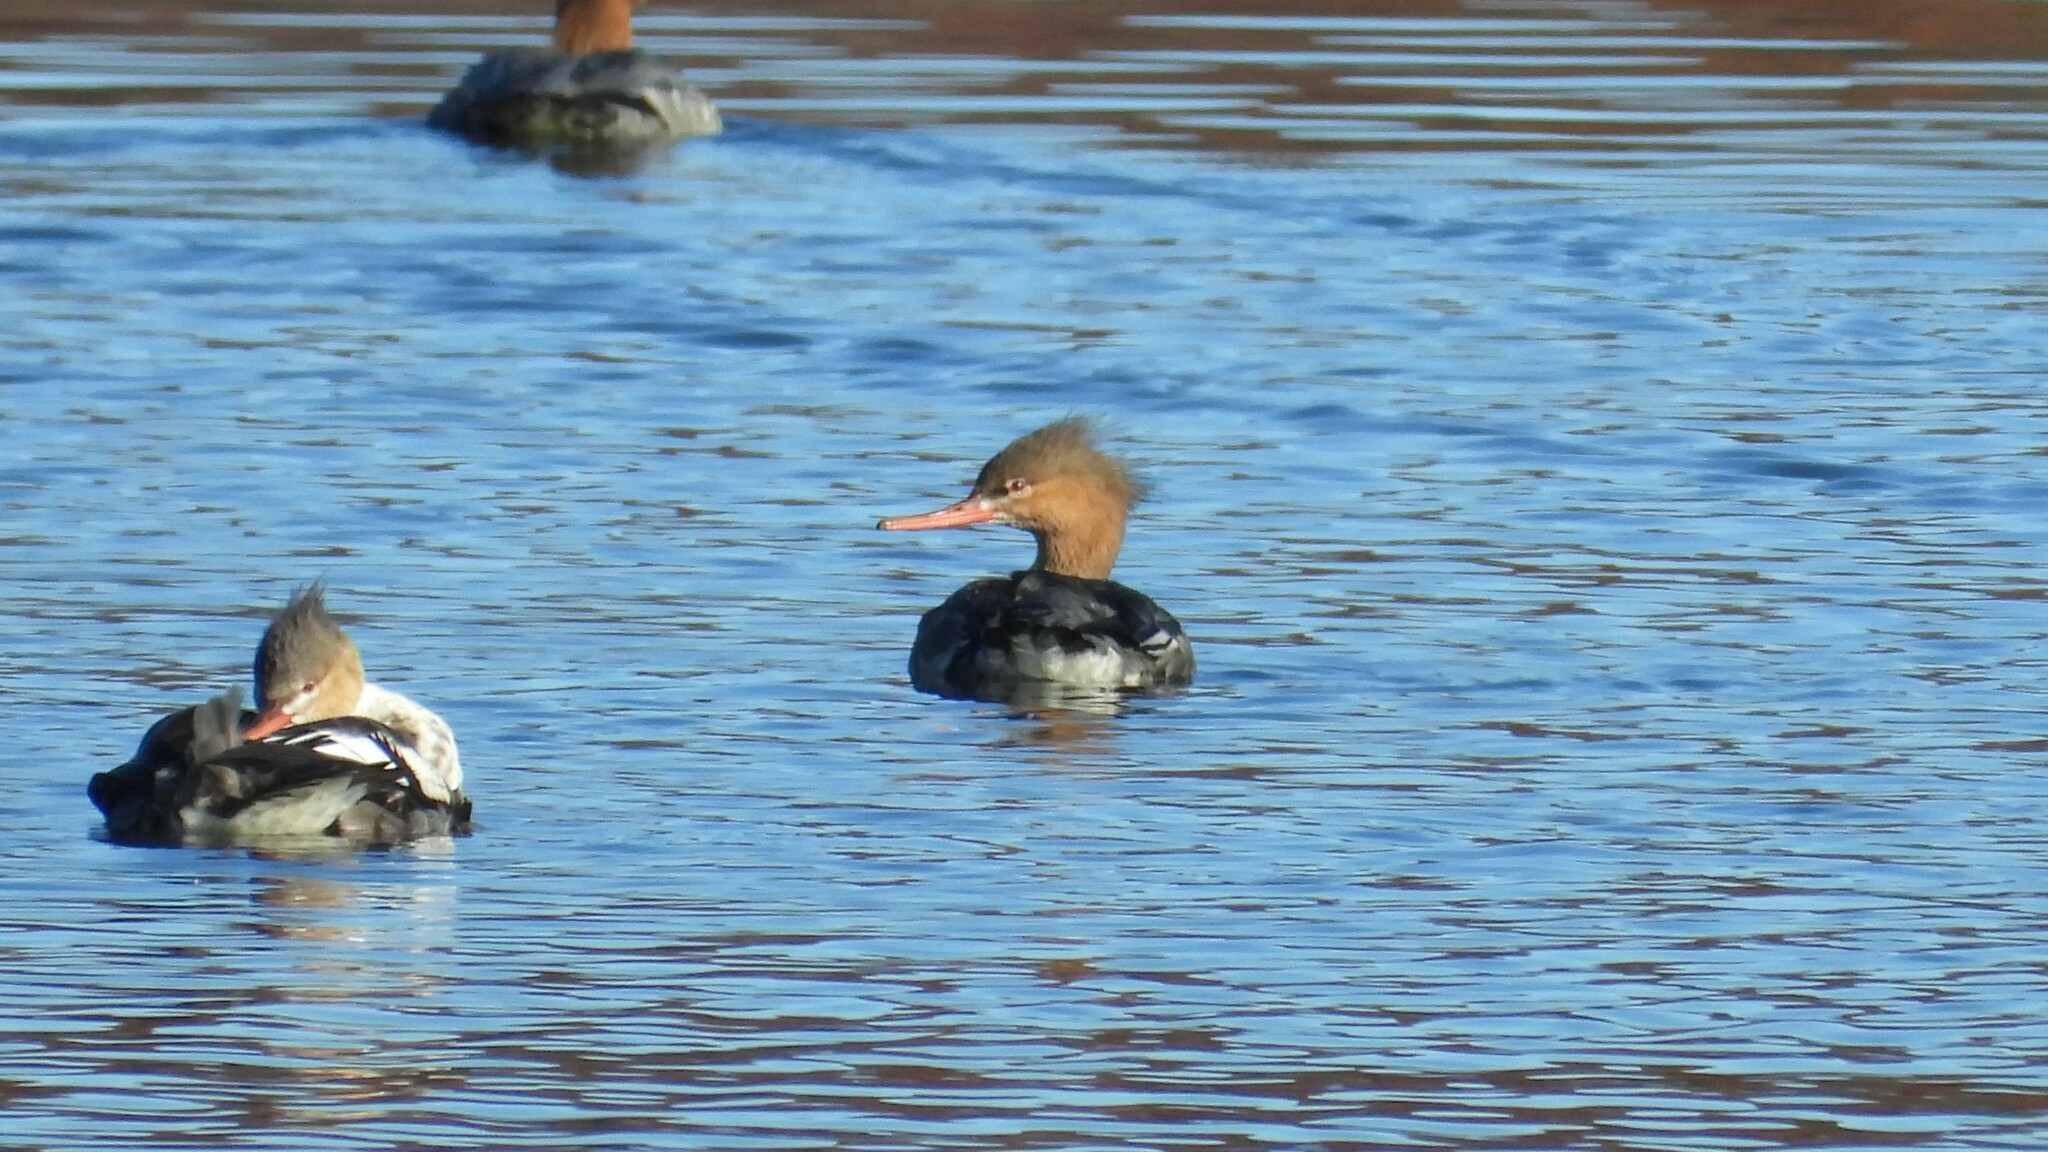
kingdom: Animalia
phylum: Chordata
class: Aves
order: Anseriformes
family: Anatidae
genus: Mergus
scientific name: Mergus serrator
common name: Red-breasted merganser
